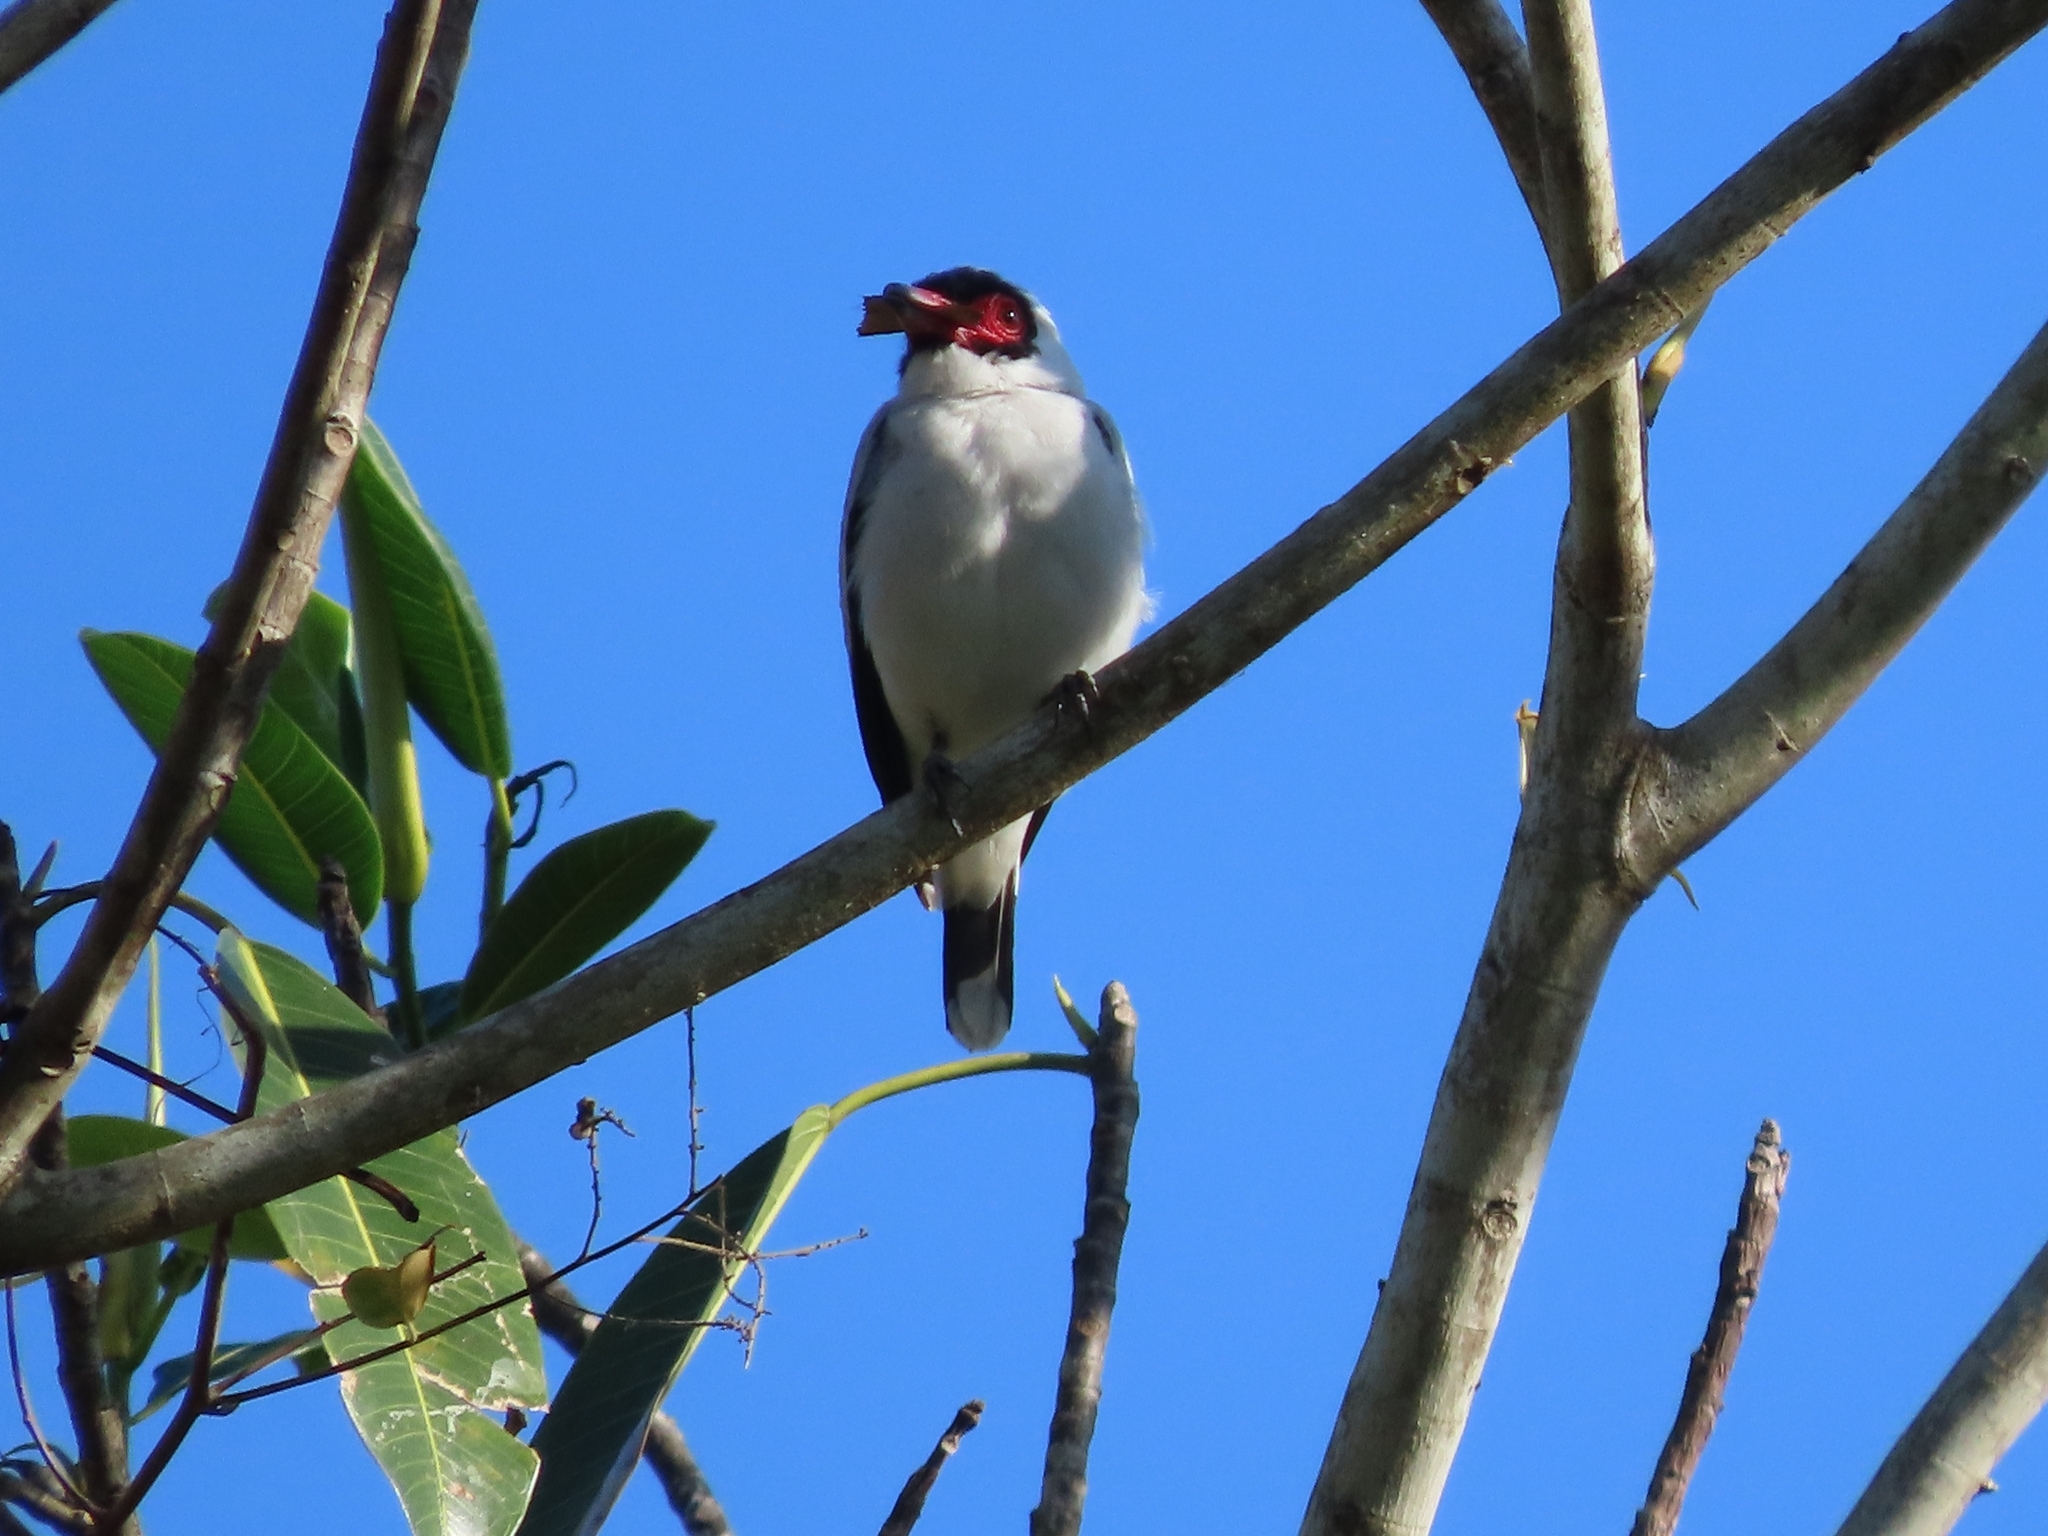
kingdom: Animalia
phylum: Chordata
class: Aves
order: Passeriformes
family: Cotingidae
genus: Tityra
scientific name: Tityra semifasciata
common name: Masked tityra
